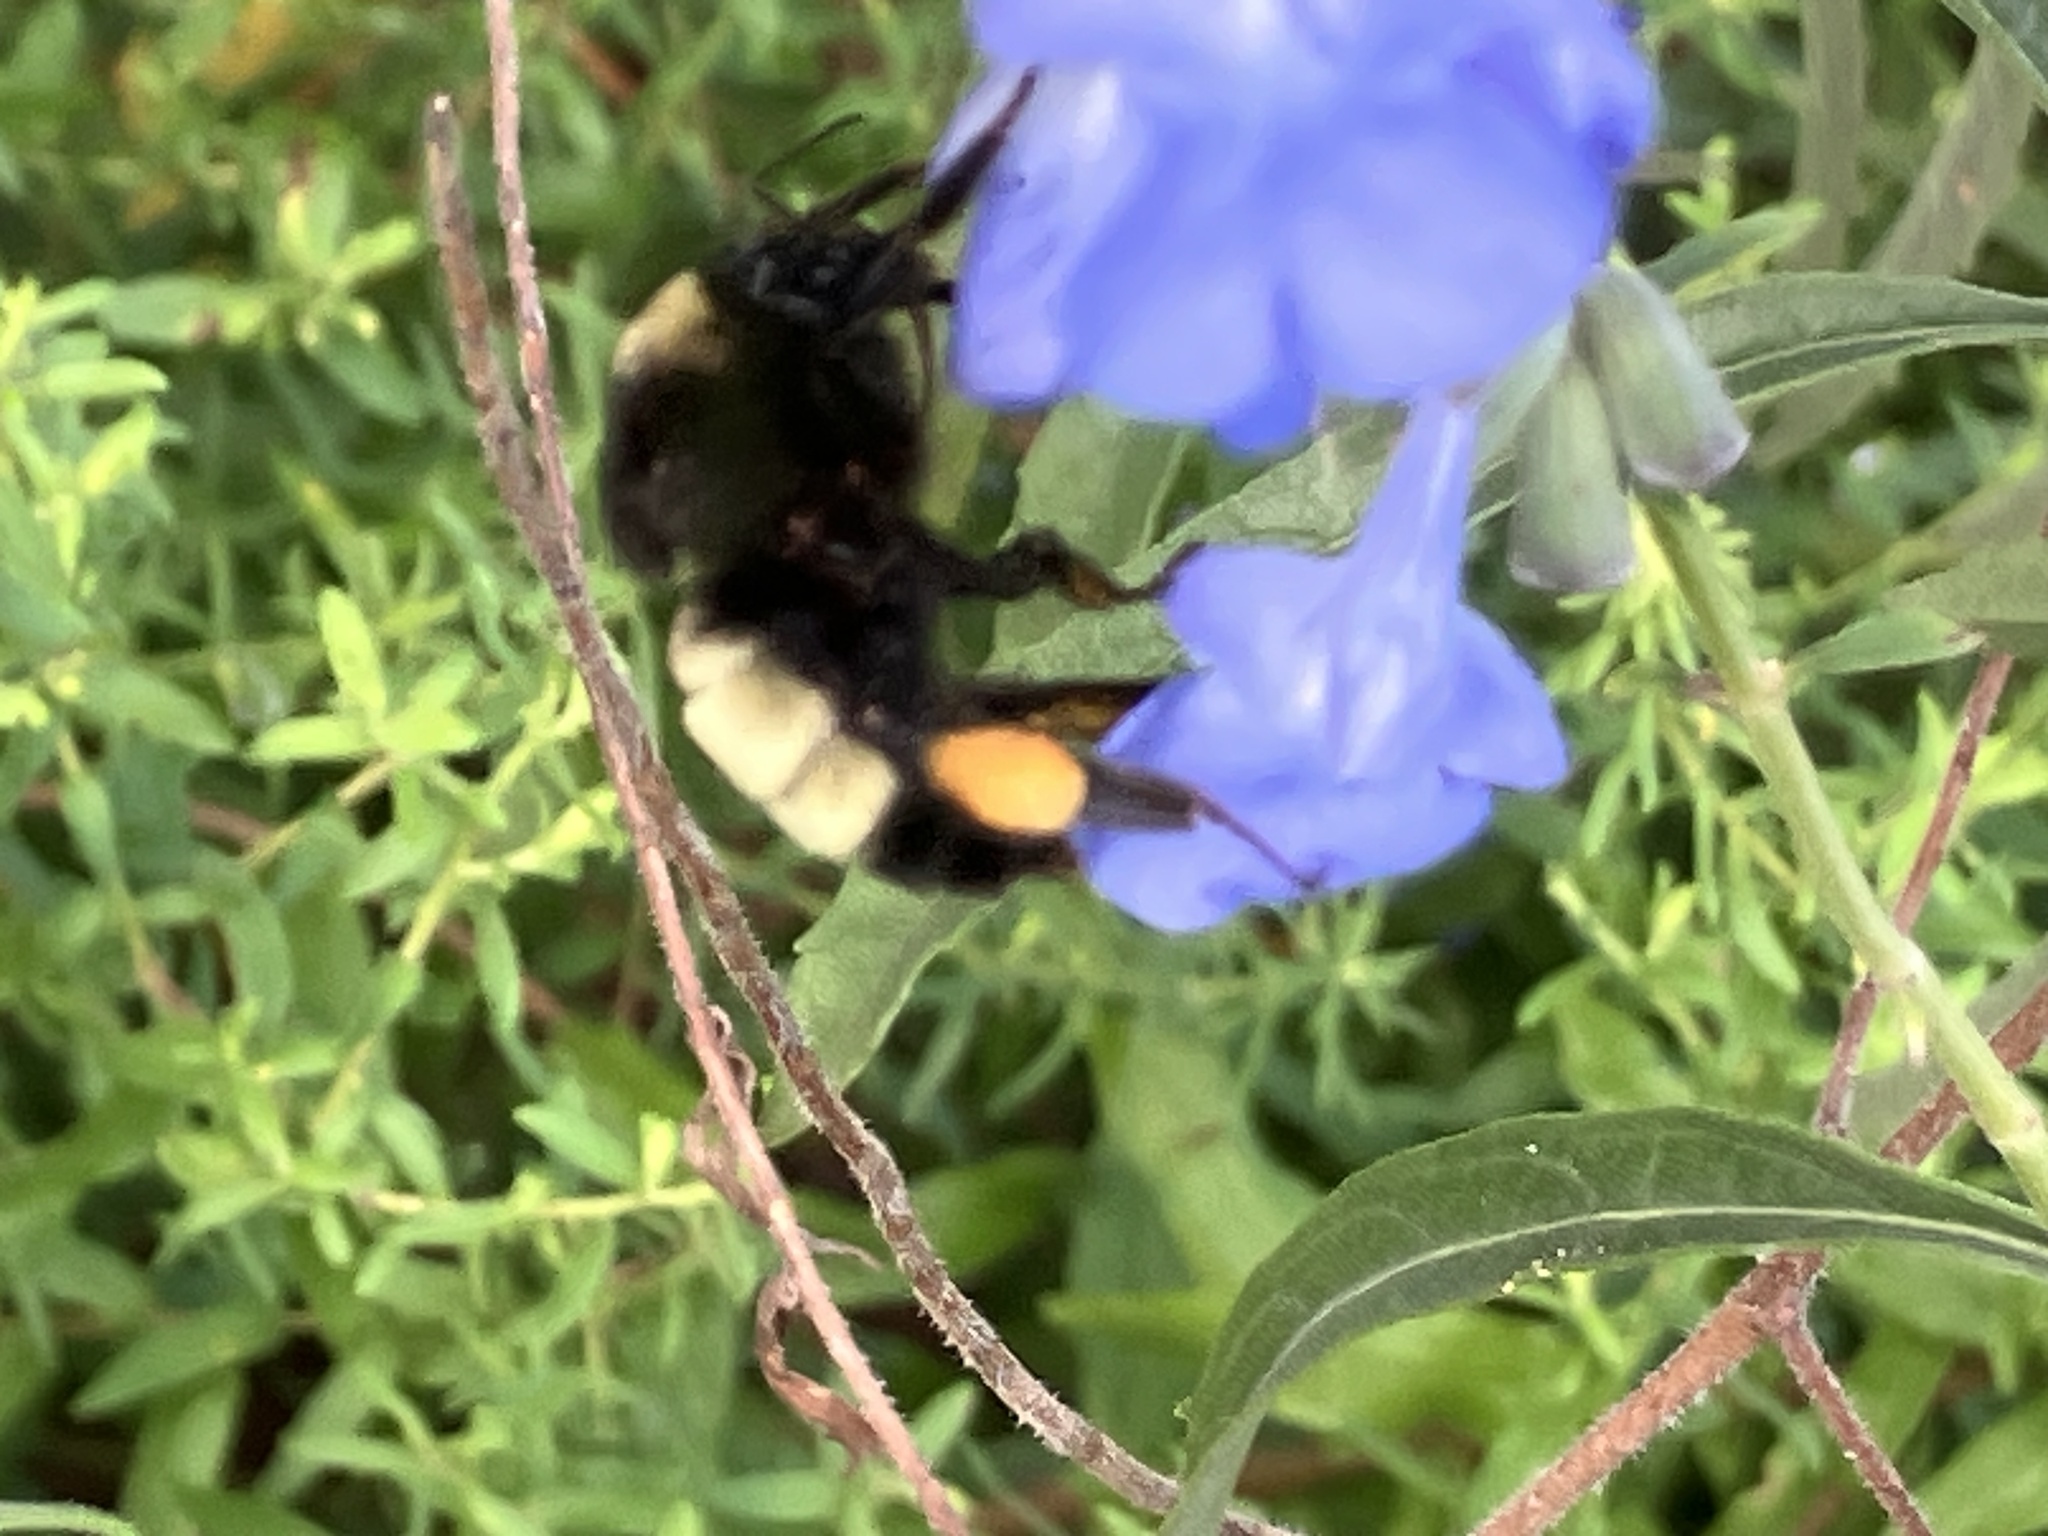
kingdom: Animalia
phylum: Arthropoda
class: Insecta
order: Hymenoptera
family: Apidae
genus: Bombus
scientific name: Bombus pensylvanicus
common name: Bumble bee
